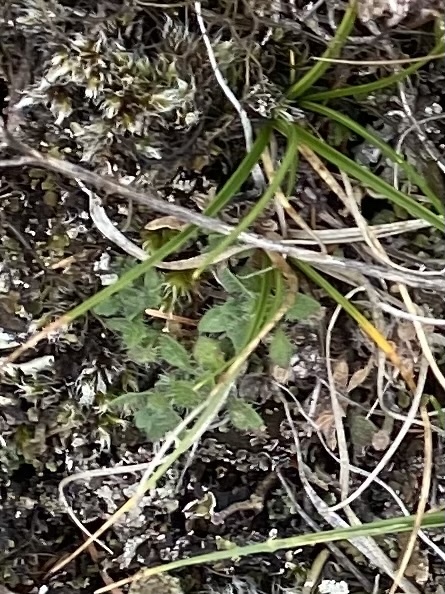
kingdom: Plantae
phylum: Tracheophyta
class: Magnoliopsida
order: Boraginales
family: Boraginaceae
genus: Eritrichium
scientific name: Eritrichium villosum
